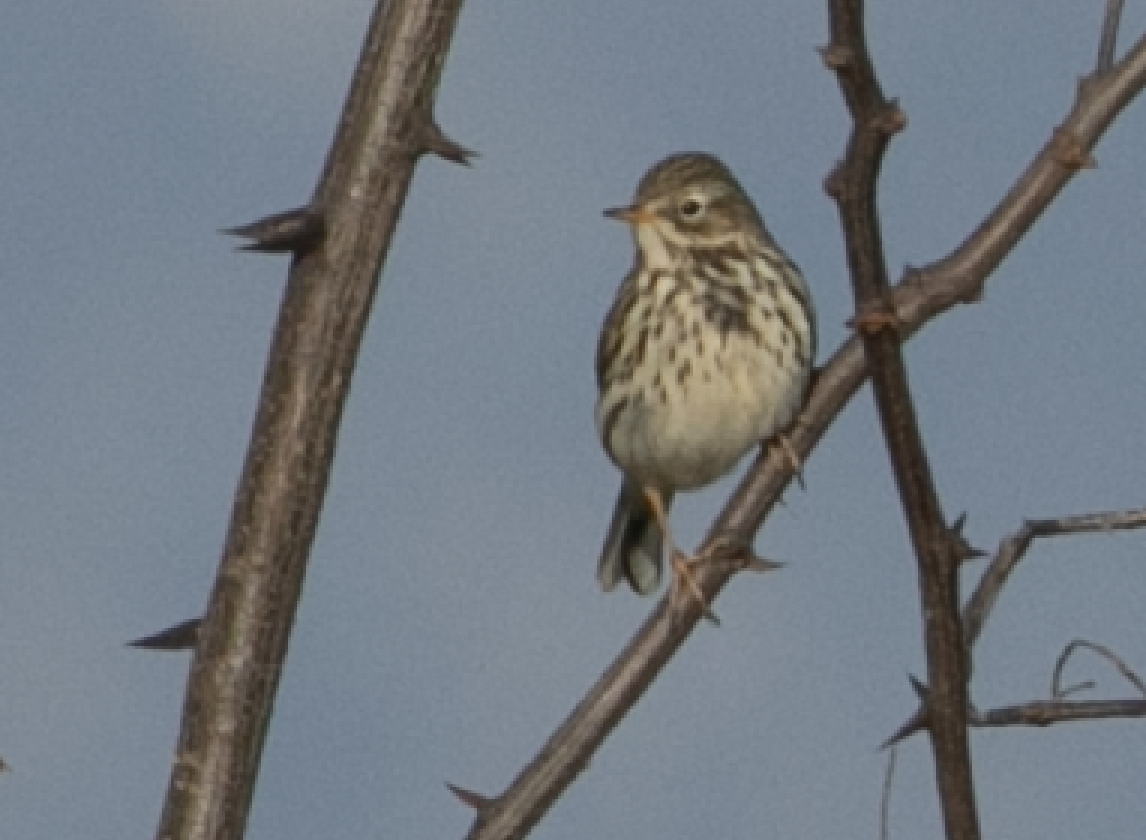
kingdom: Animalia
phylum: Chordata
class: Aves
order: Passeriformes
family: Motacillidae
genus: Anthus
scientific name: Anthus pratensis
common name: Meadow pipit
